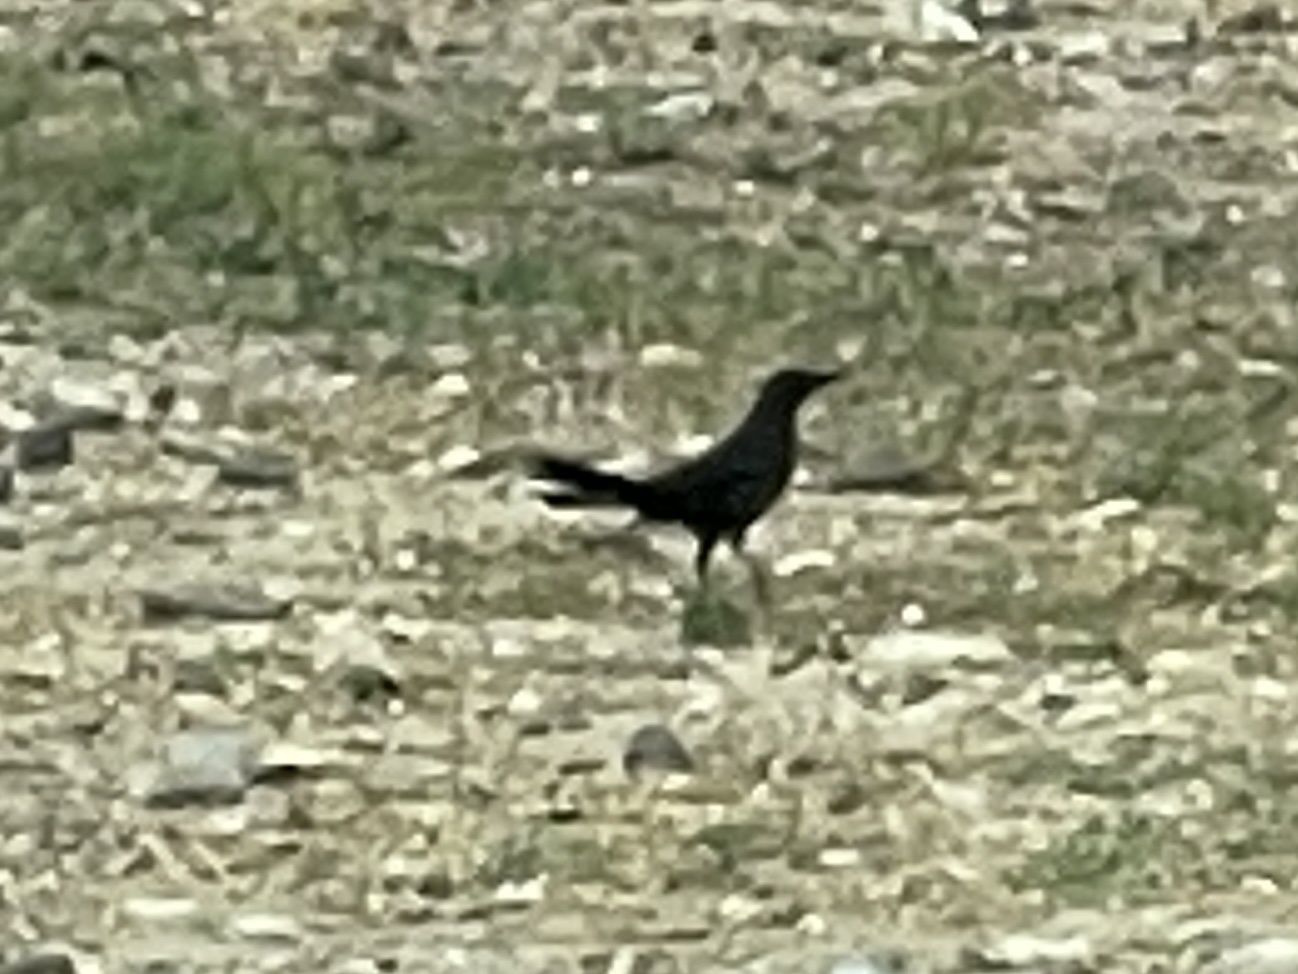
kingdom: Animalia
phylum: Chordata
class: Aves
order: Passeriformes
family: Icteridae
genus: Quiscalus
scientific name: Quiscalus mexicanus
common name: Great-tailed grackle
